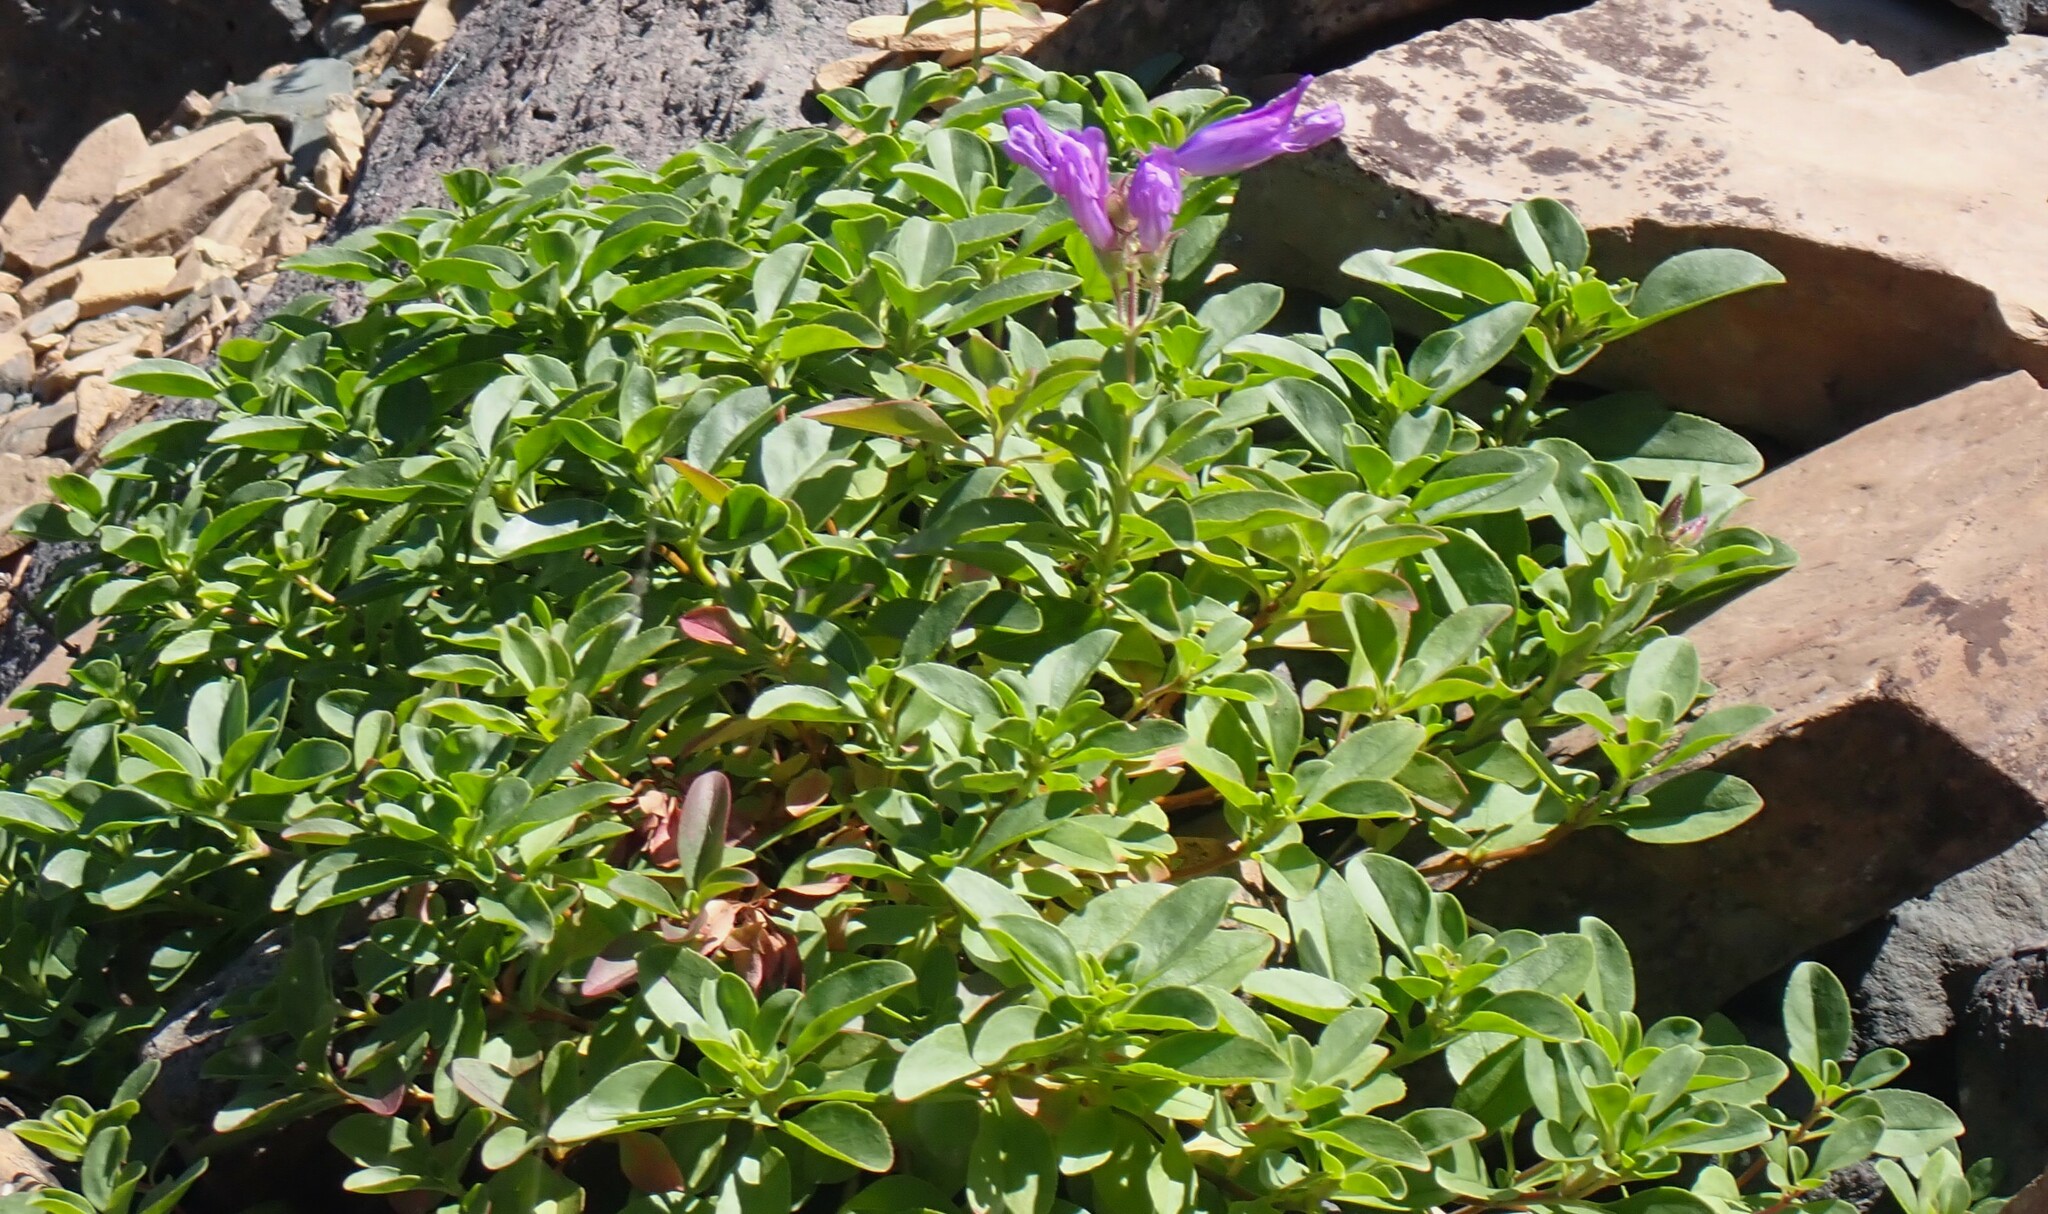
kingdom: Plantae
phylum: Tracheophyta
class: Magnoliopsida
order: Lamiales
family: Plantaginaceae
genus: Penstemon
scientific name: Penstemon ellipticus
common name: Alpine beardtongue
